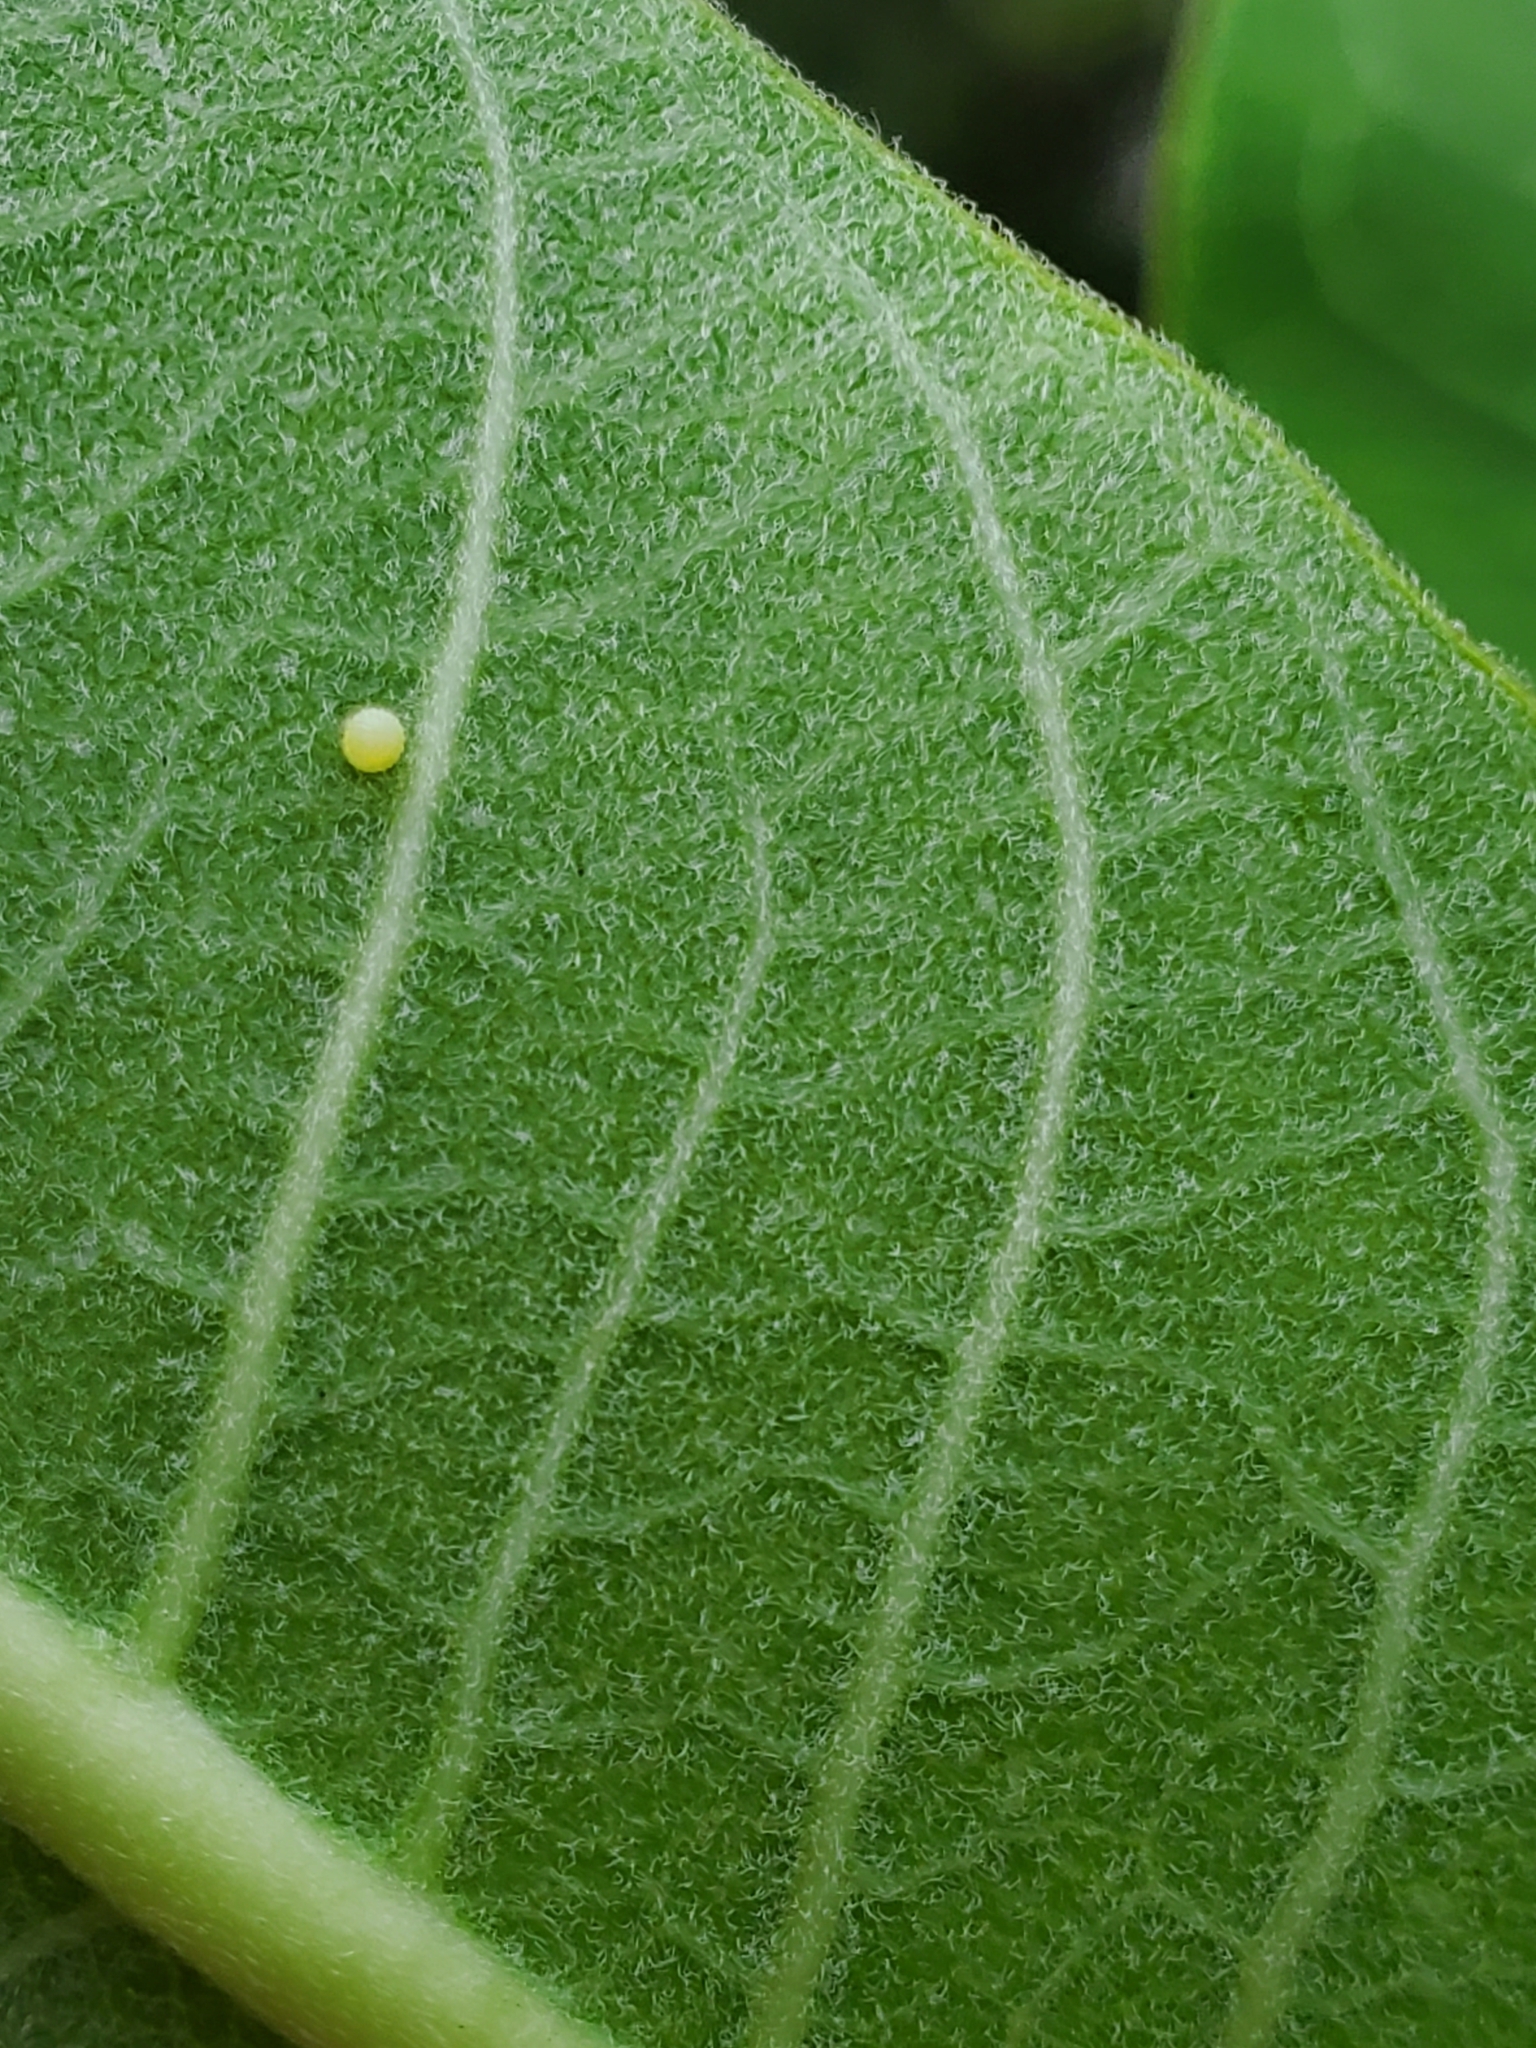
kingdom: Animalia
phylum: Arthropoda
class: Insecta
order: Lepidoptera
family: Nymphalidae
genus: Danaus
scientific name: Danaus plexippus
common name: Monarch
